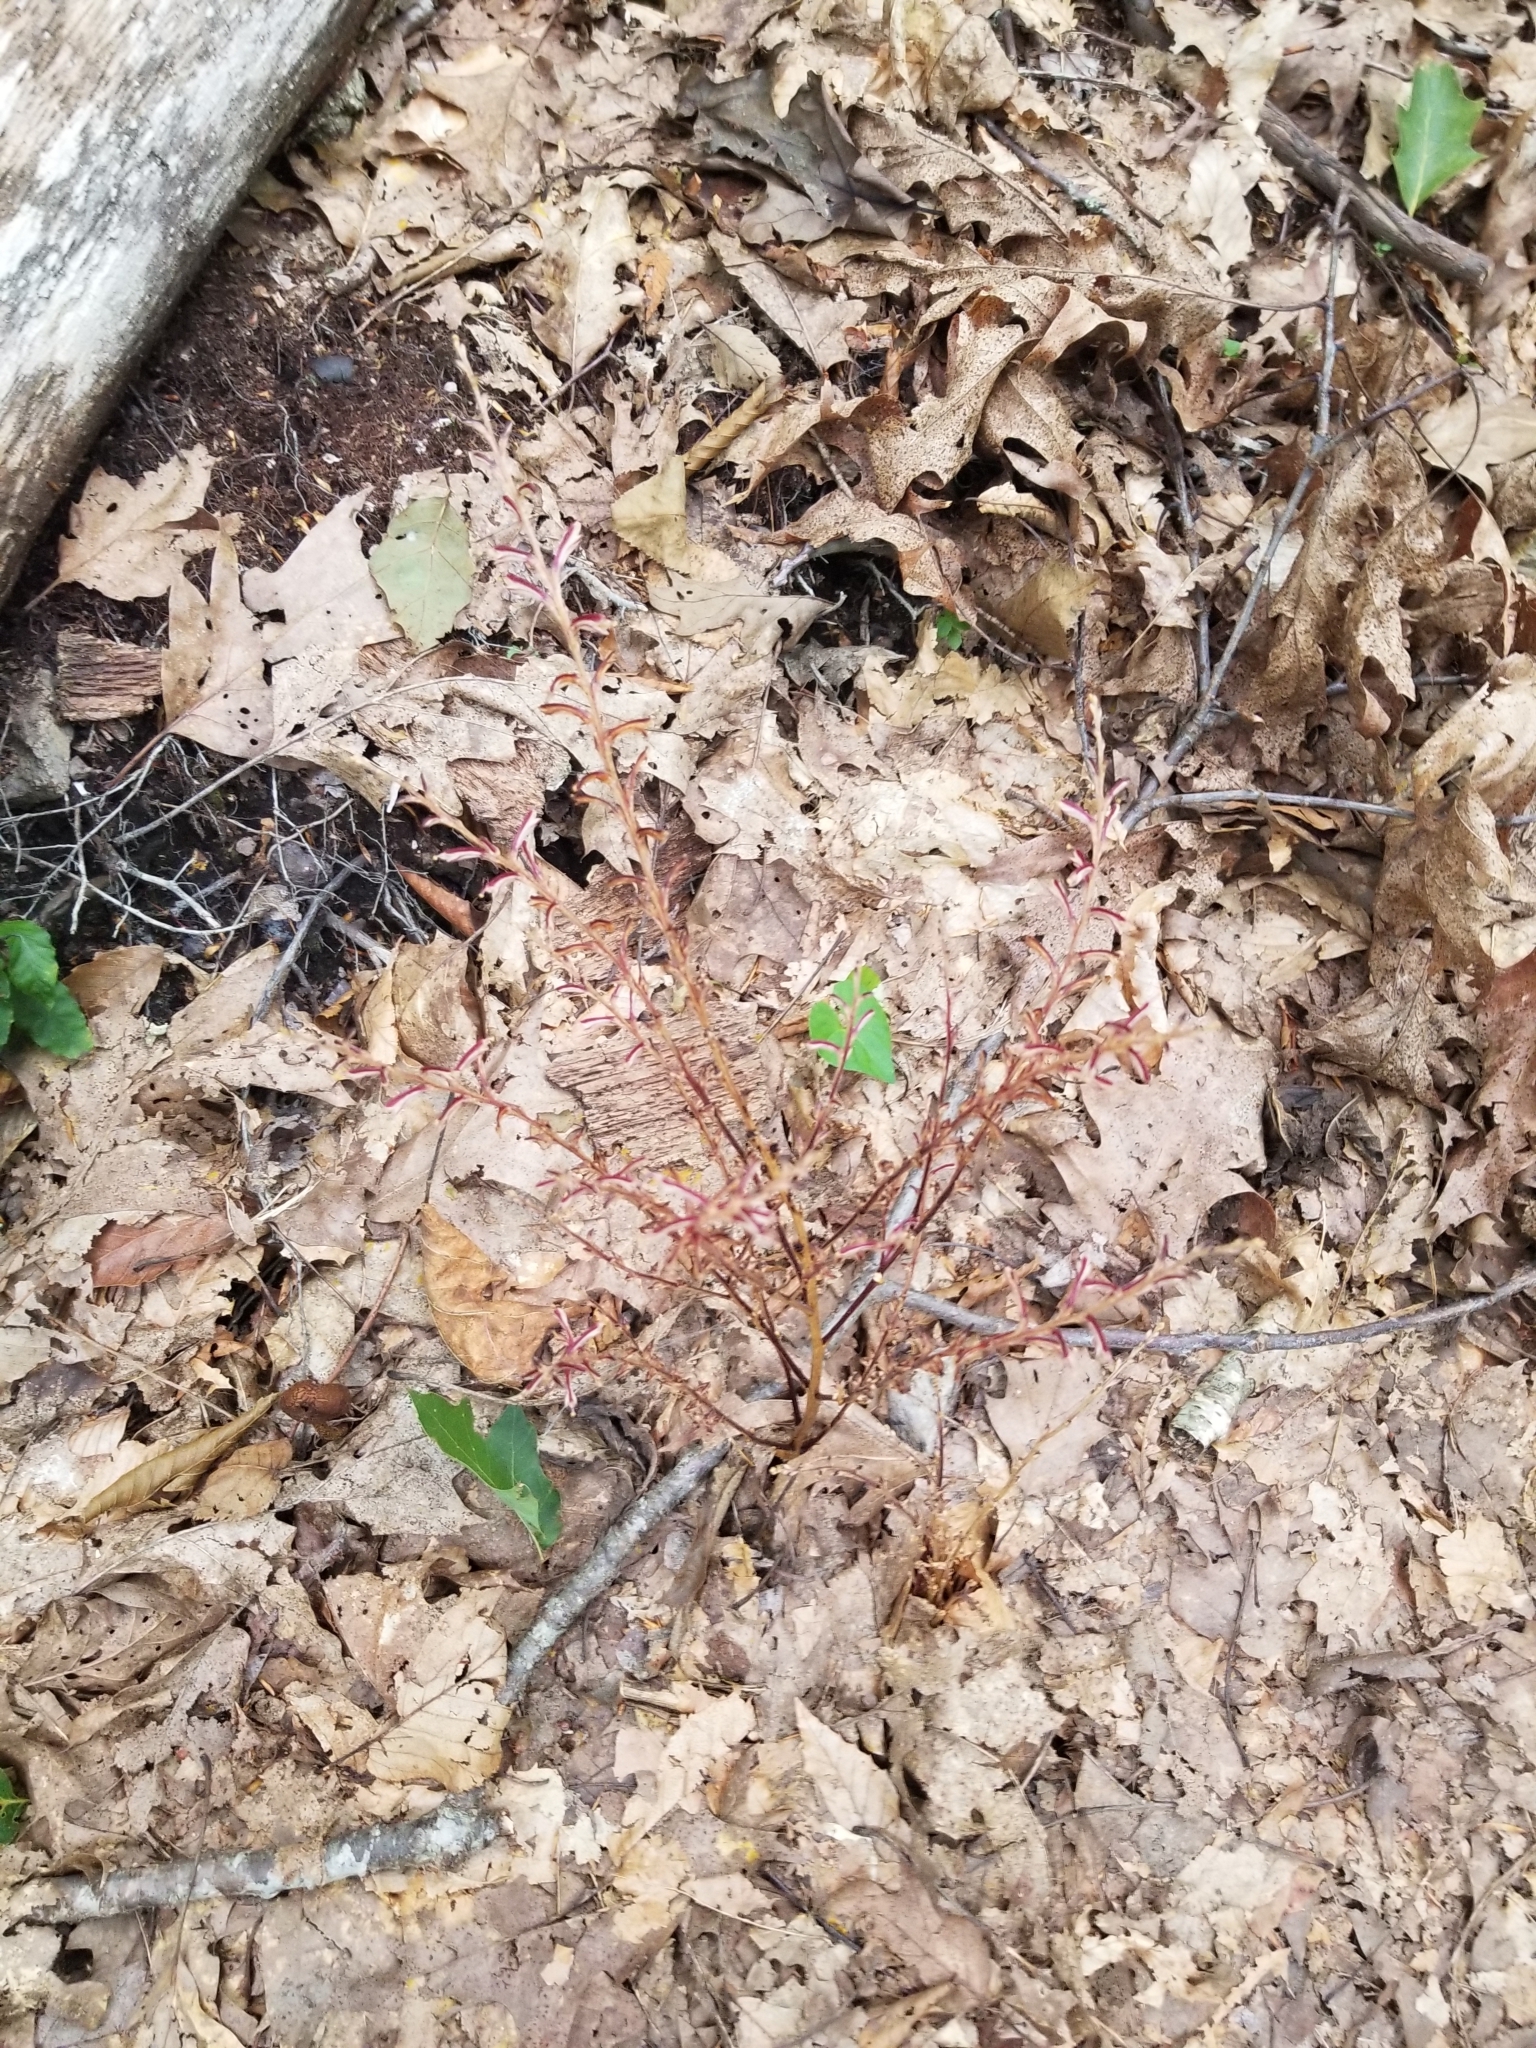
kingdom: Plantae
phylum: Tracheophyta
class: Magnoliopsida
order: Lamiales
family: Orobanchaceae
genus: Epifagus
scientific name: Epifagus virginiana
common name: Beechdrops
